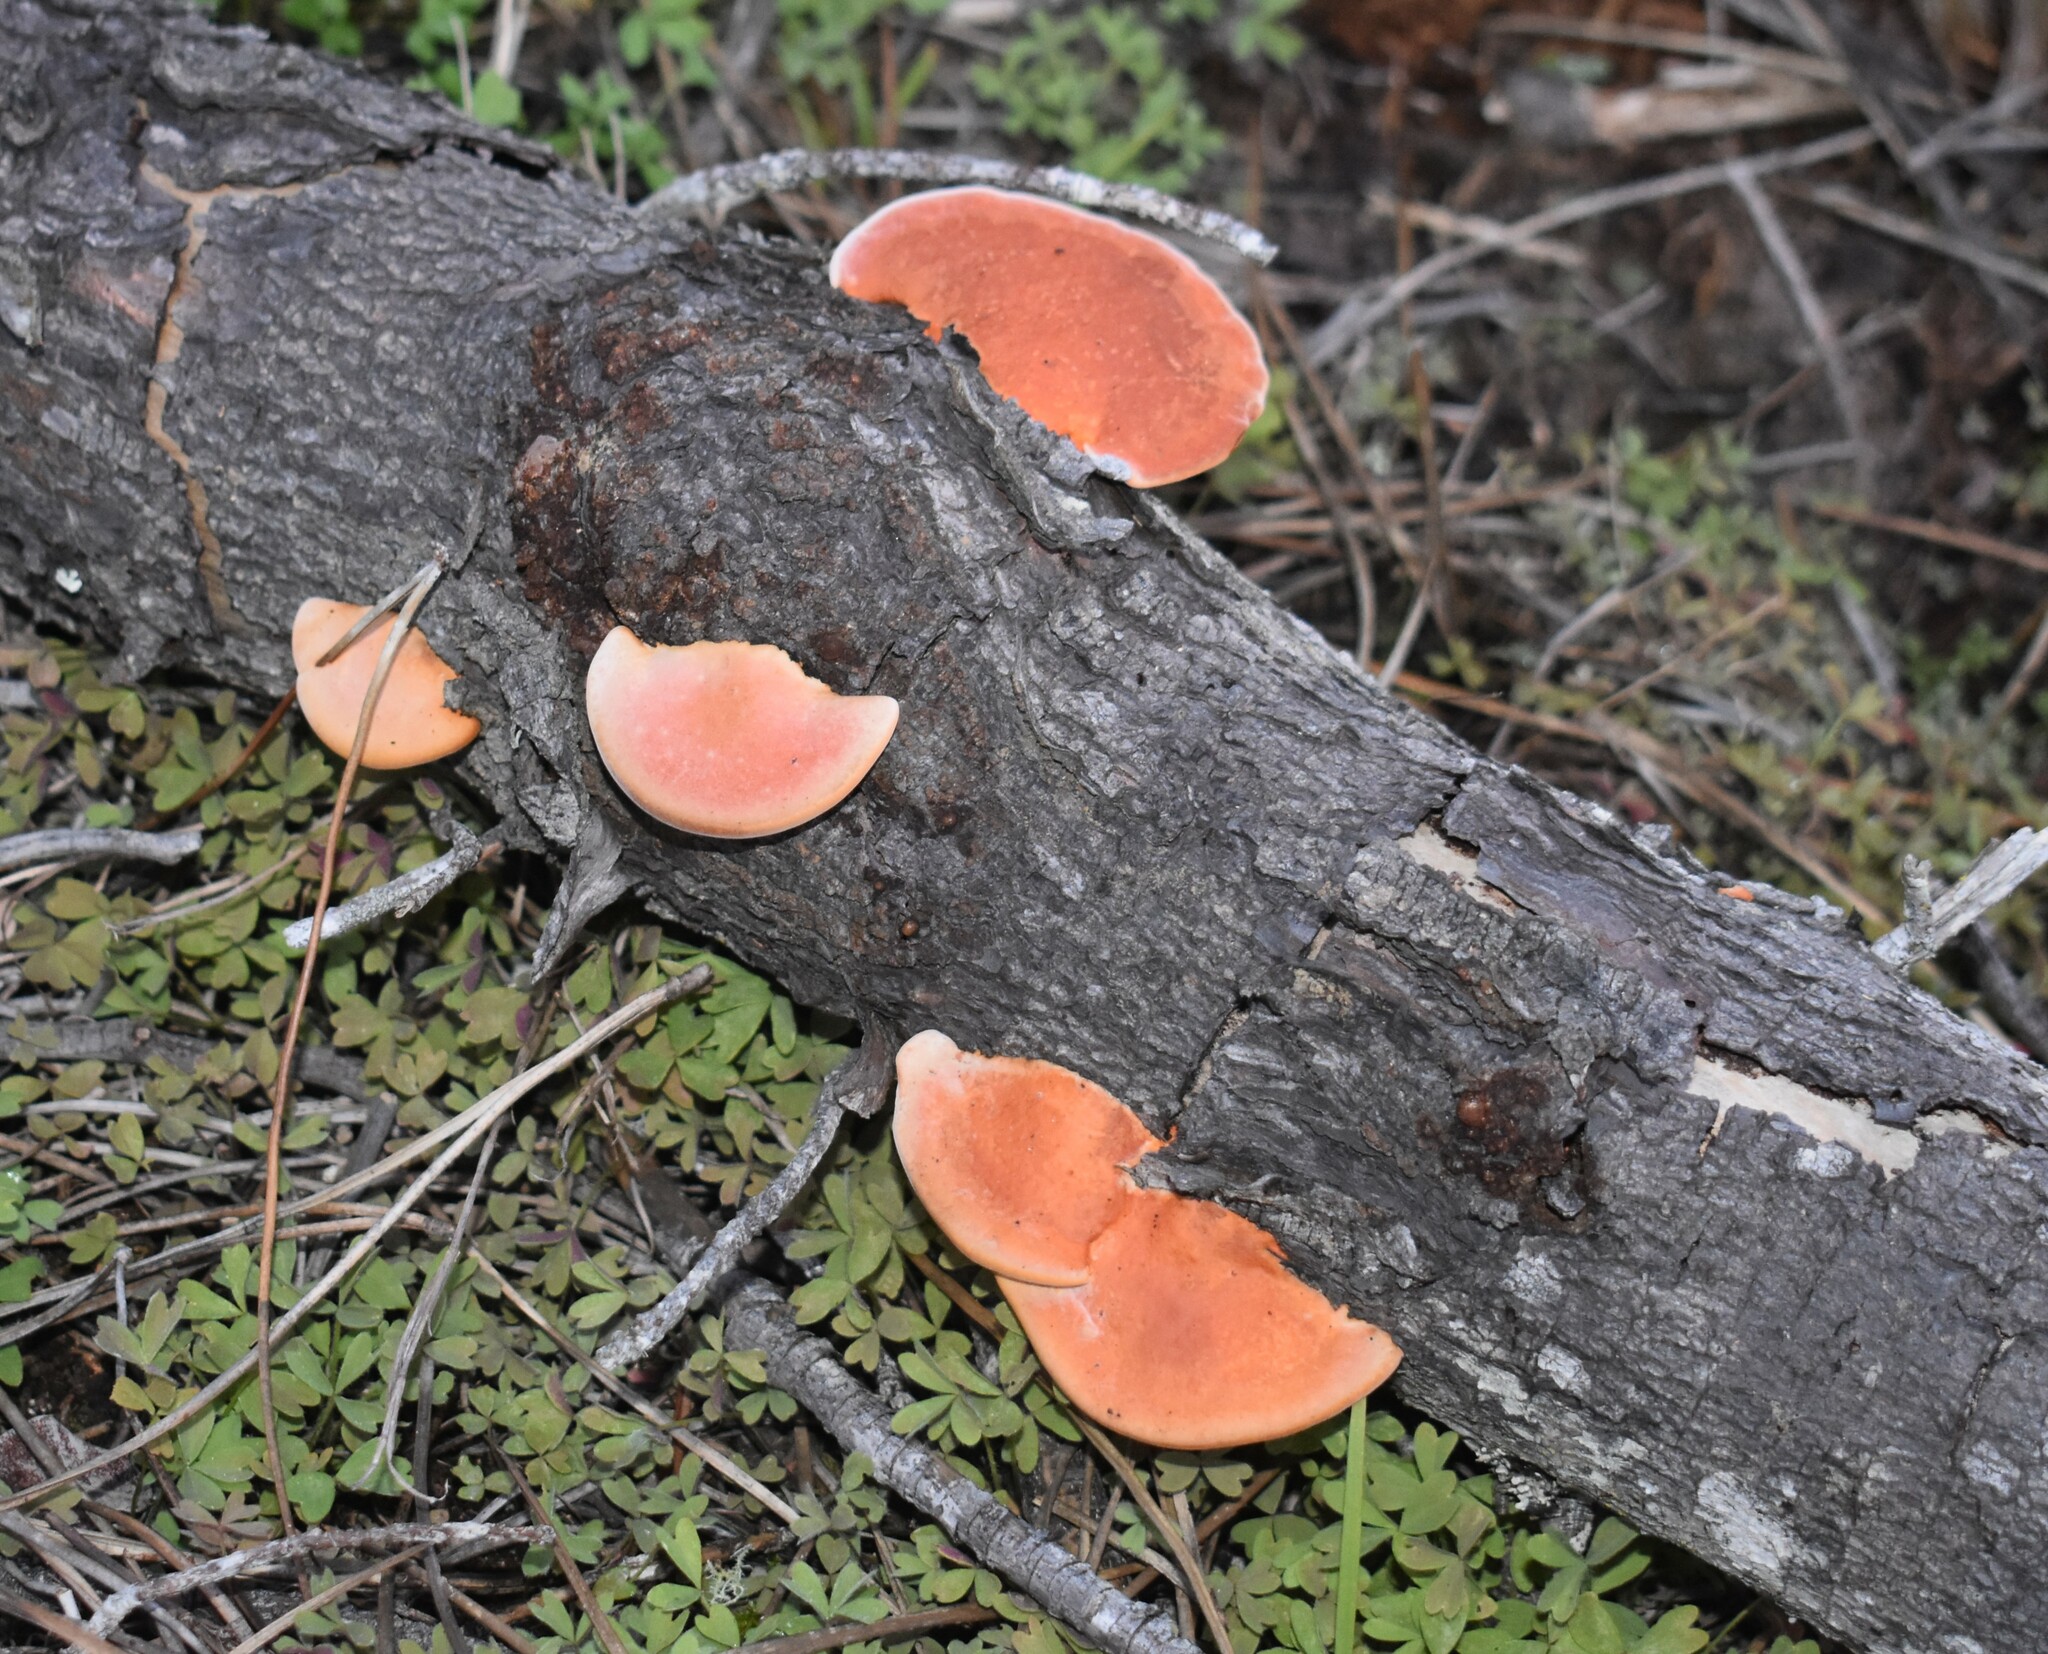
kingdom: Fungi
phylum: Basidiomycota
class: Agaricomycetes
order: Polyporales
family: Polyporaceae
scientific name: Polyporaceae
